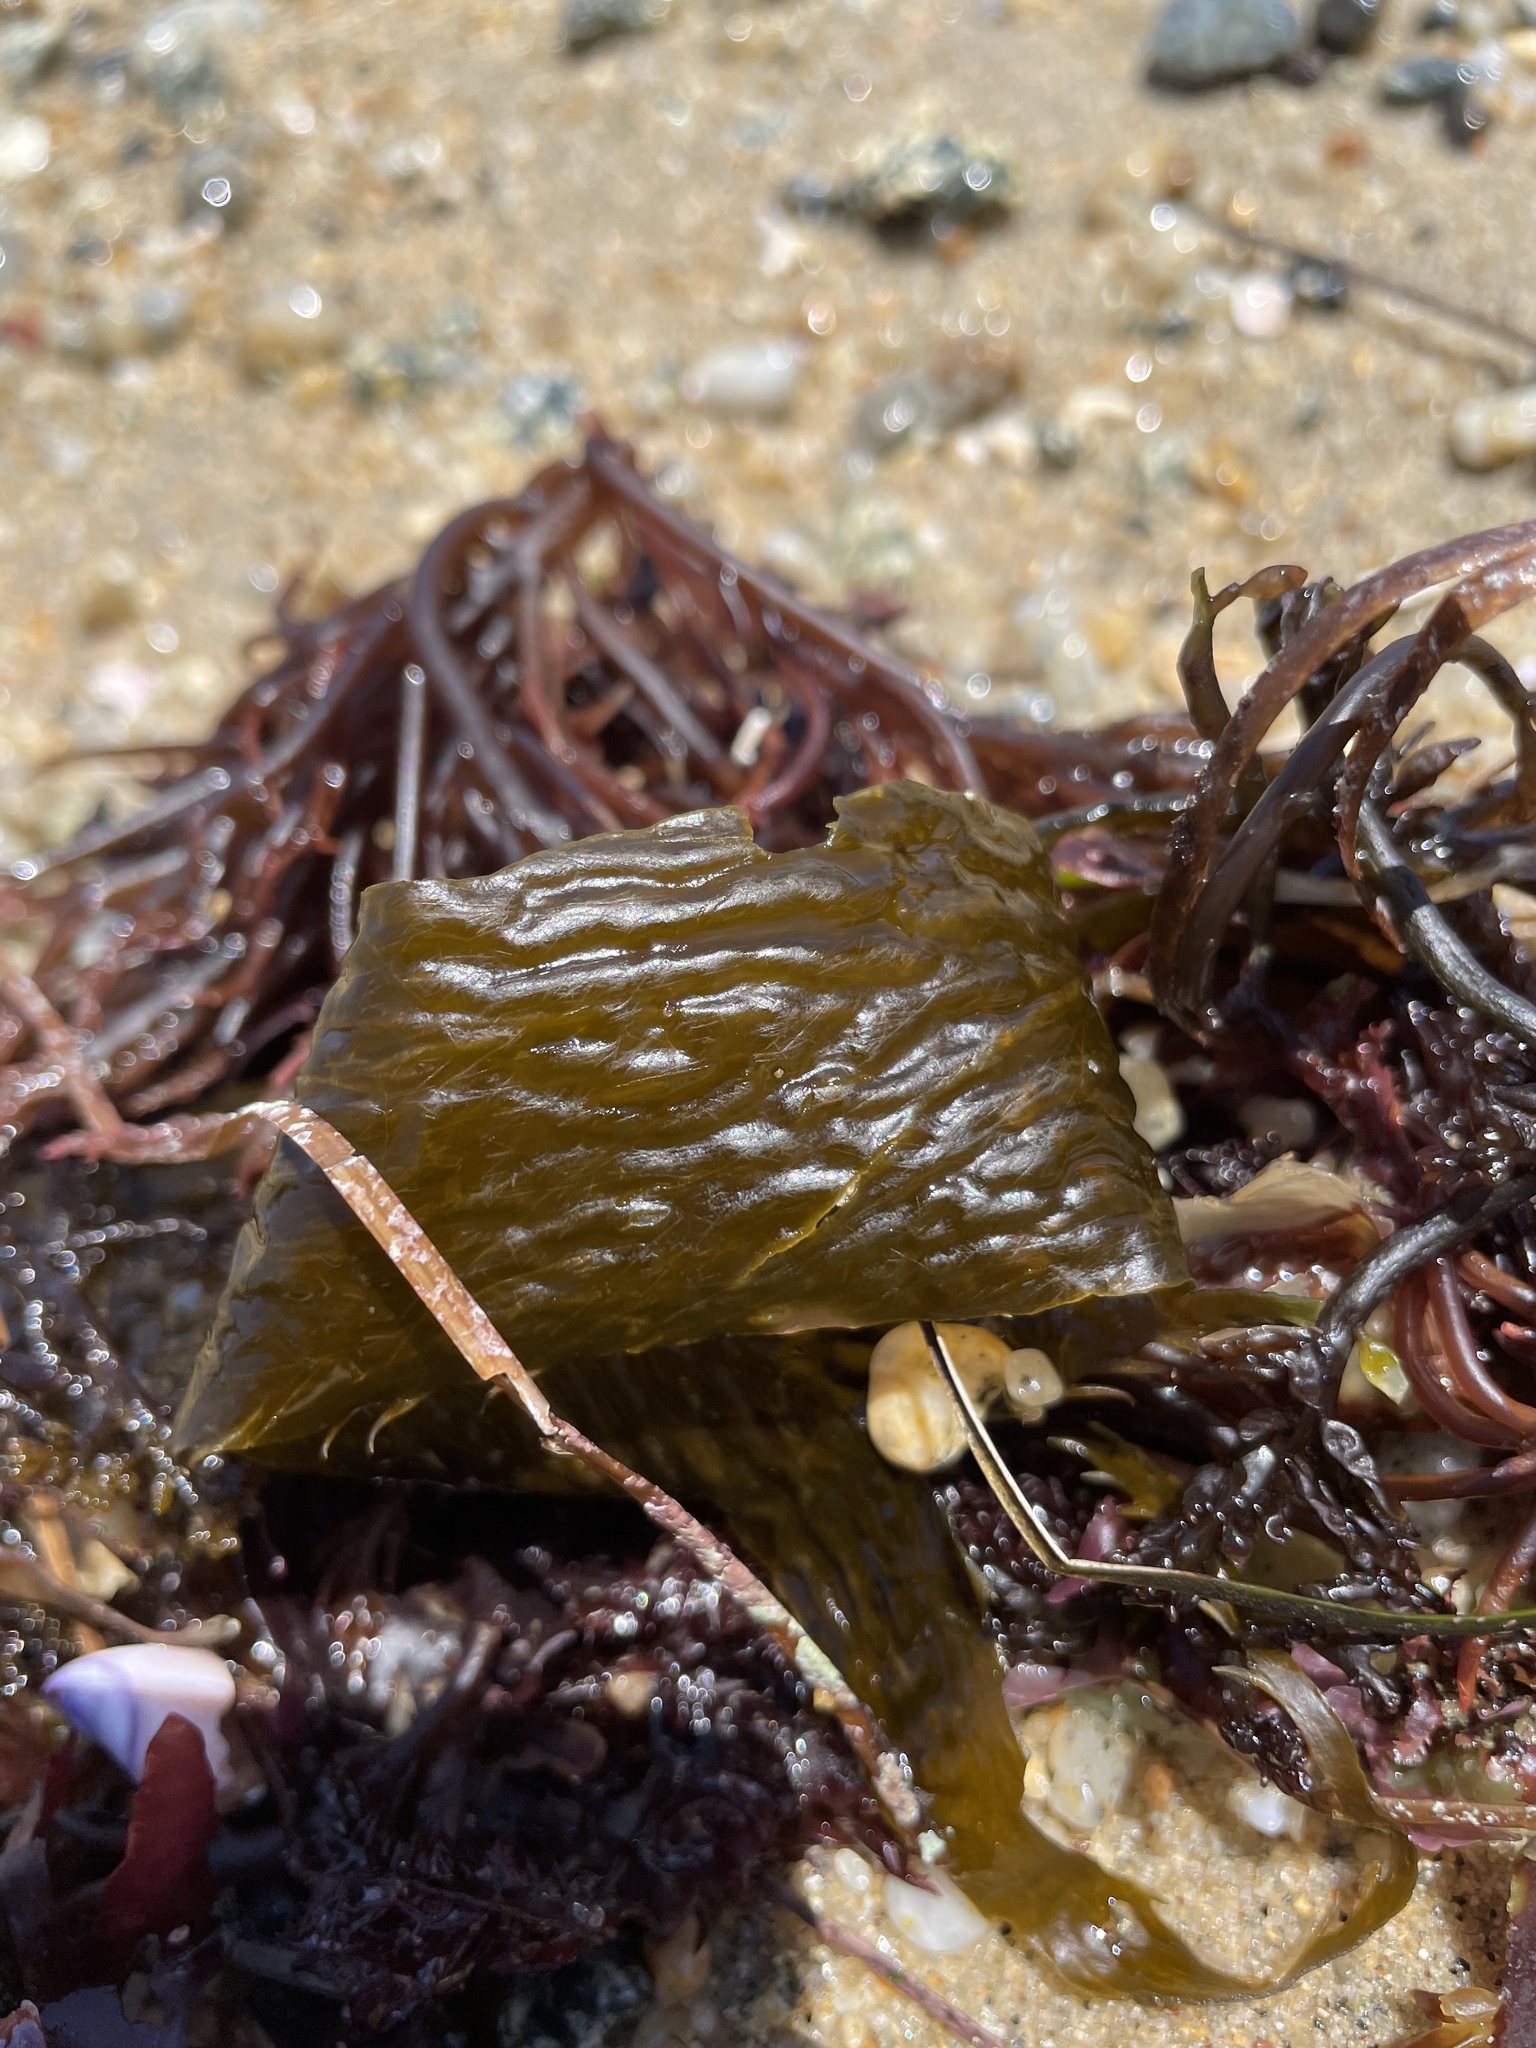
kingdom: Chromista
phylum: Ochrophyta
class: Phaeophyceae
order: Laminariales
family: Laminariaceae
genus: Macrocystis
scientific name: Macrocystis pyrifera
